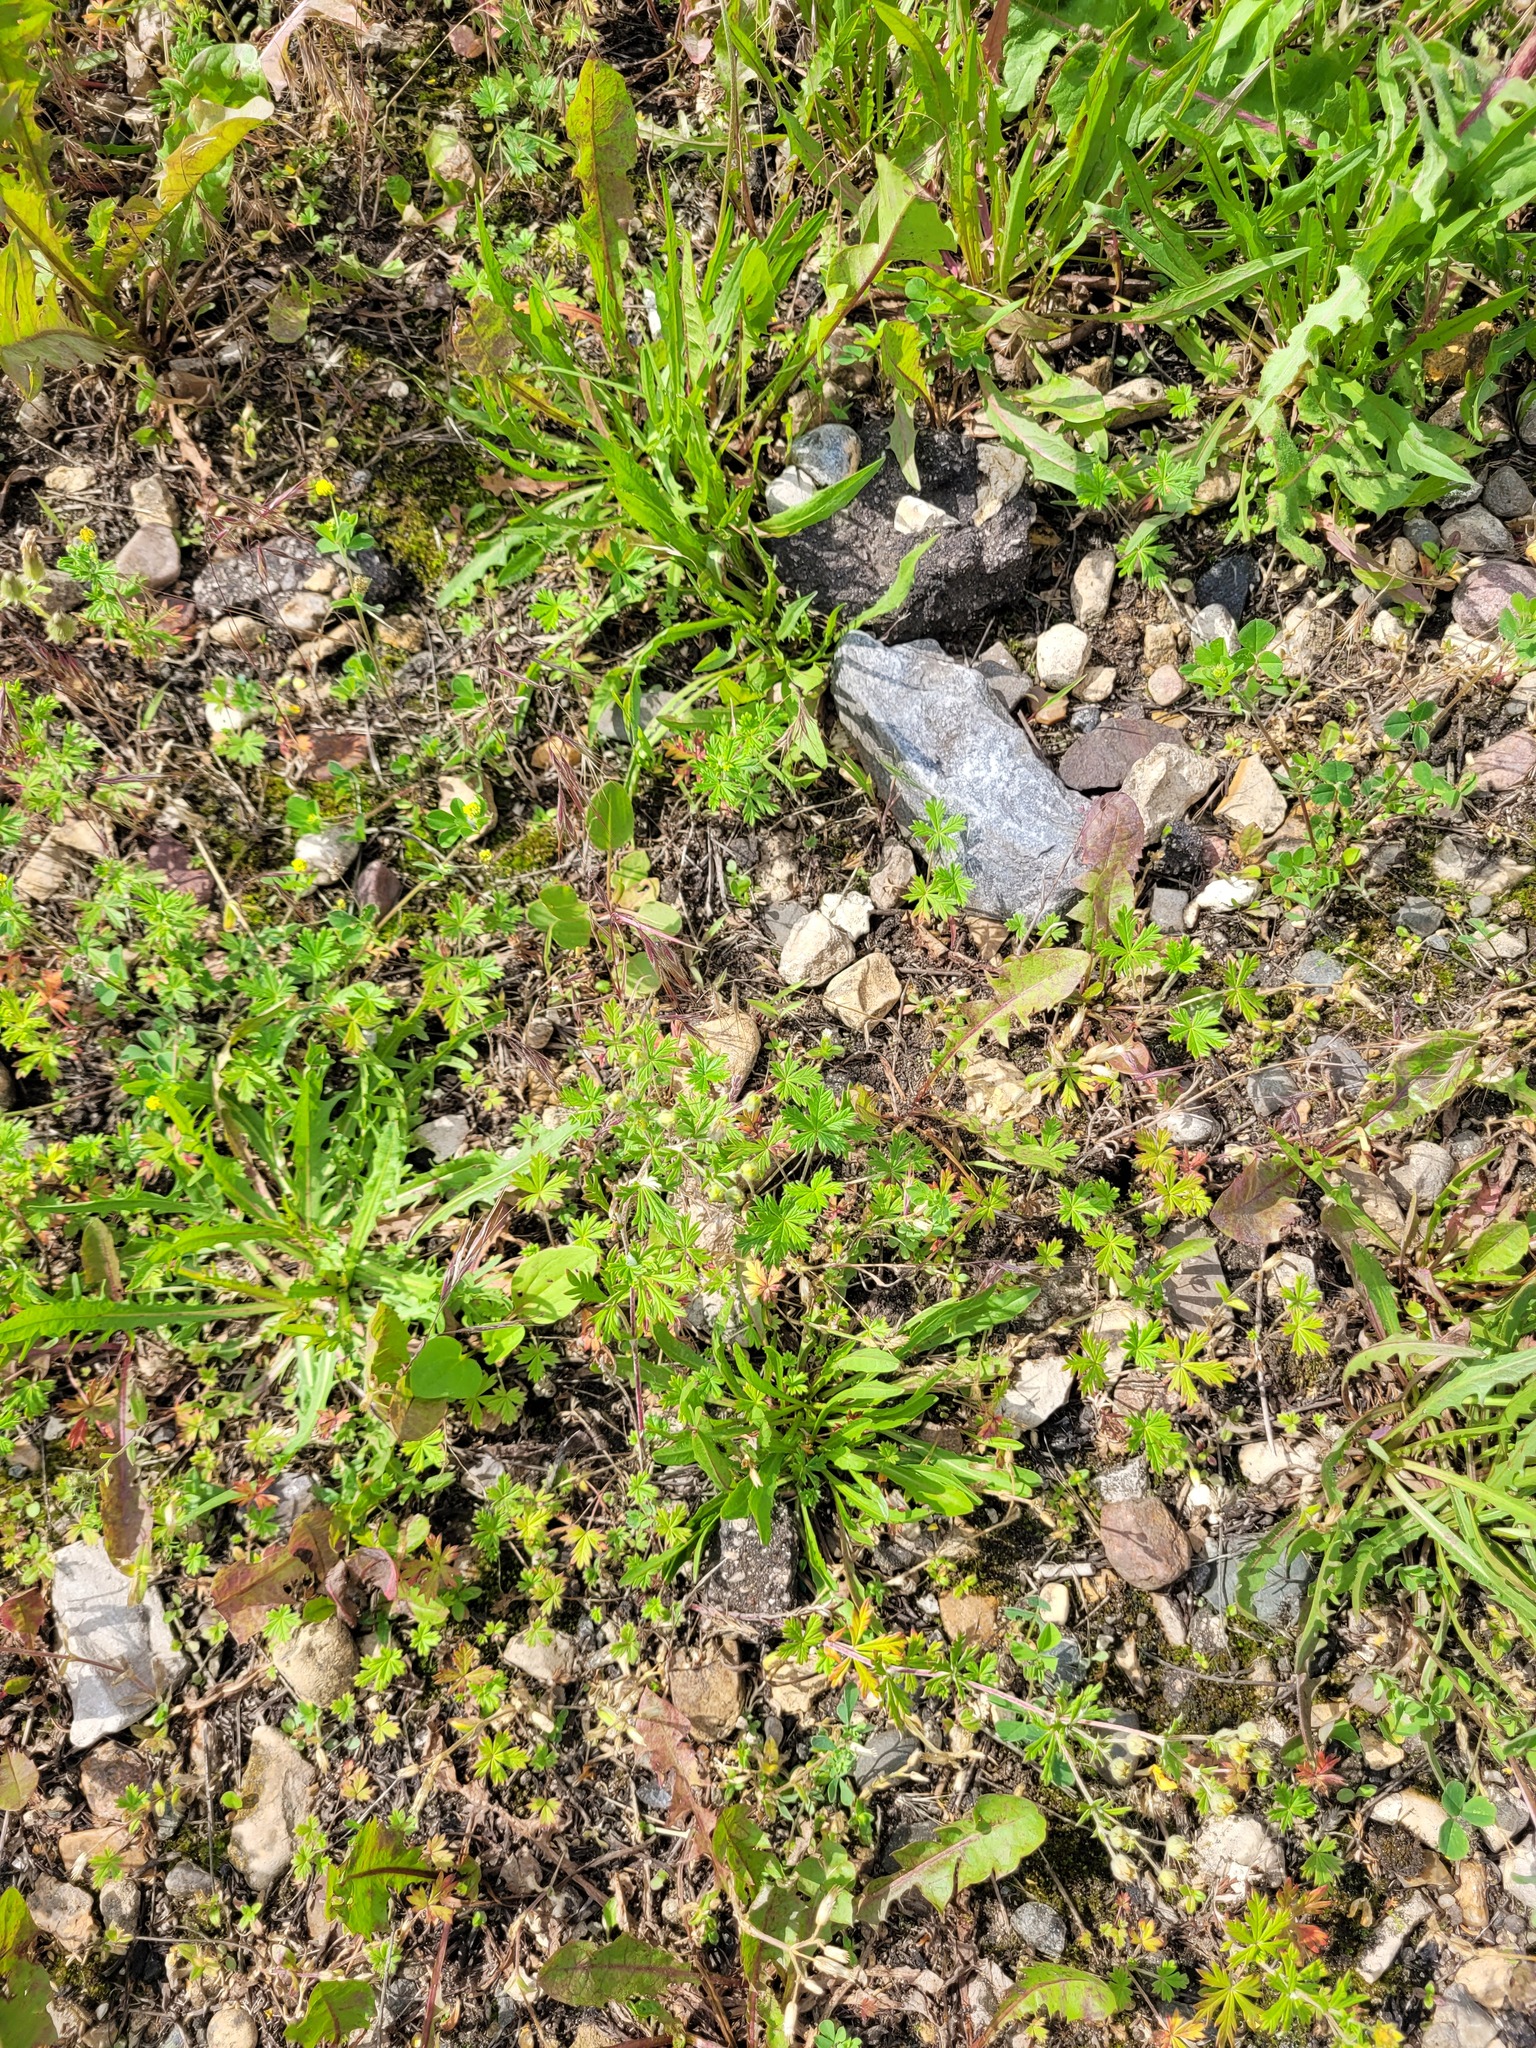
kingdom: Plantae
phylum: Tracheophyta
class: Magnoliopsida
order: Rosales
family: Rosaceae
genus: Potentilla
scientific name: Potentilla argentea
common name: Hoary cinquefoil
